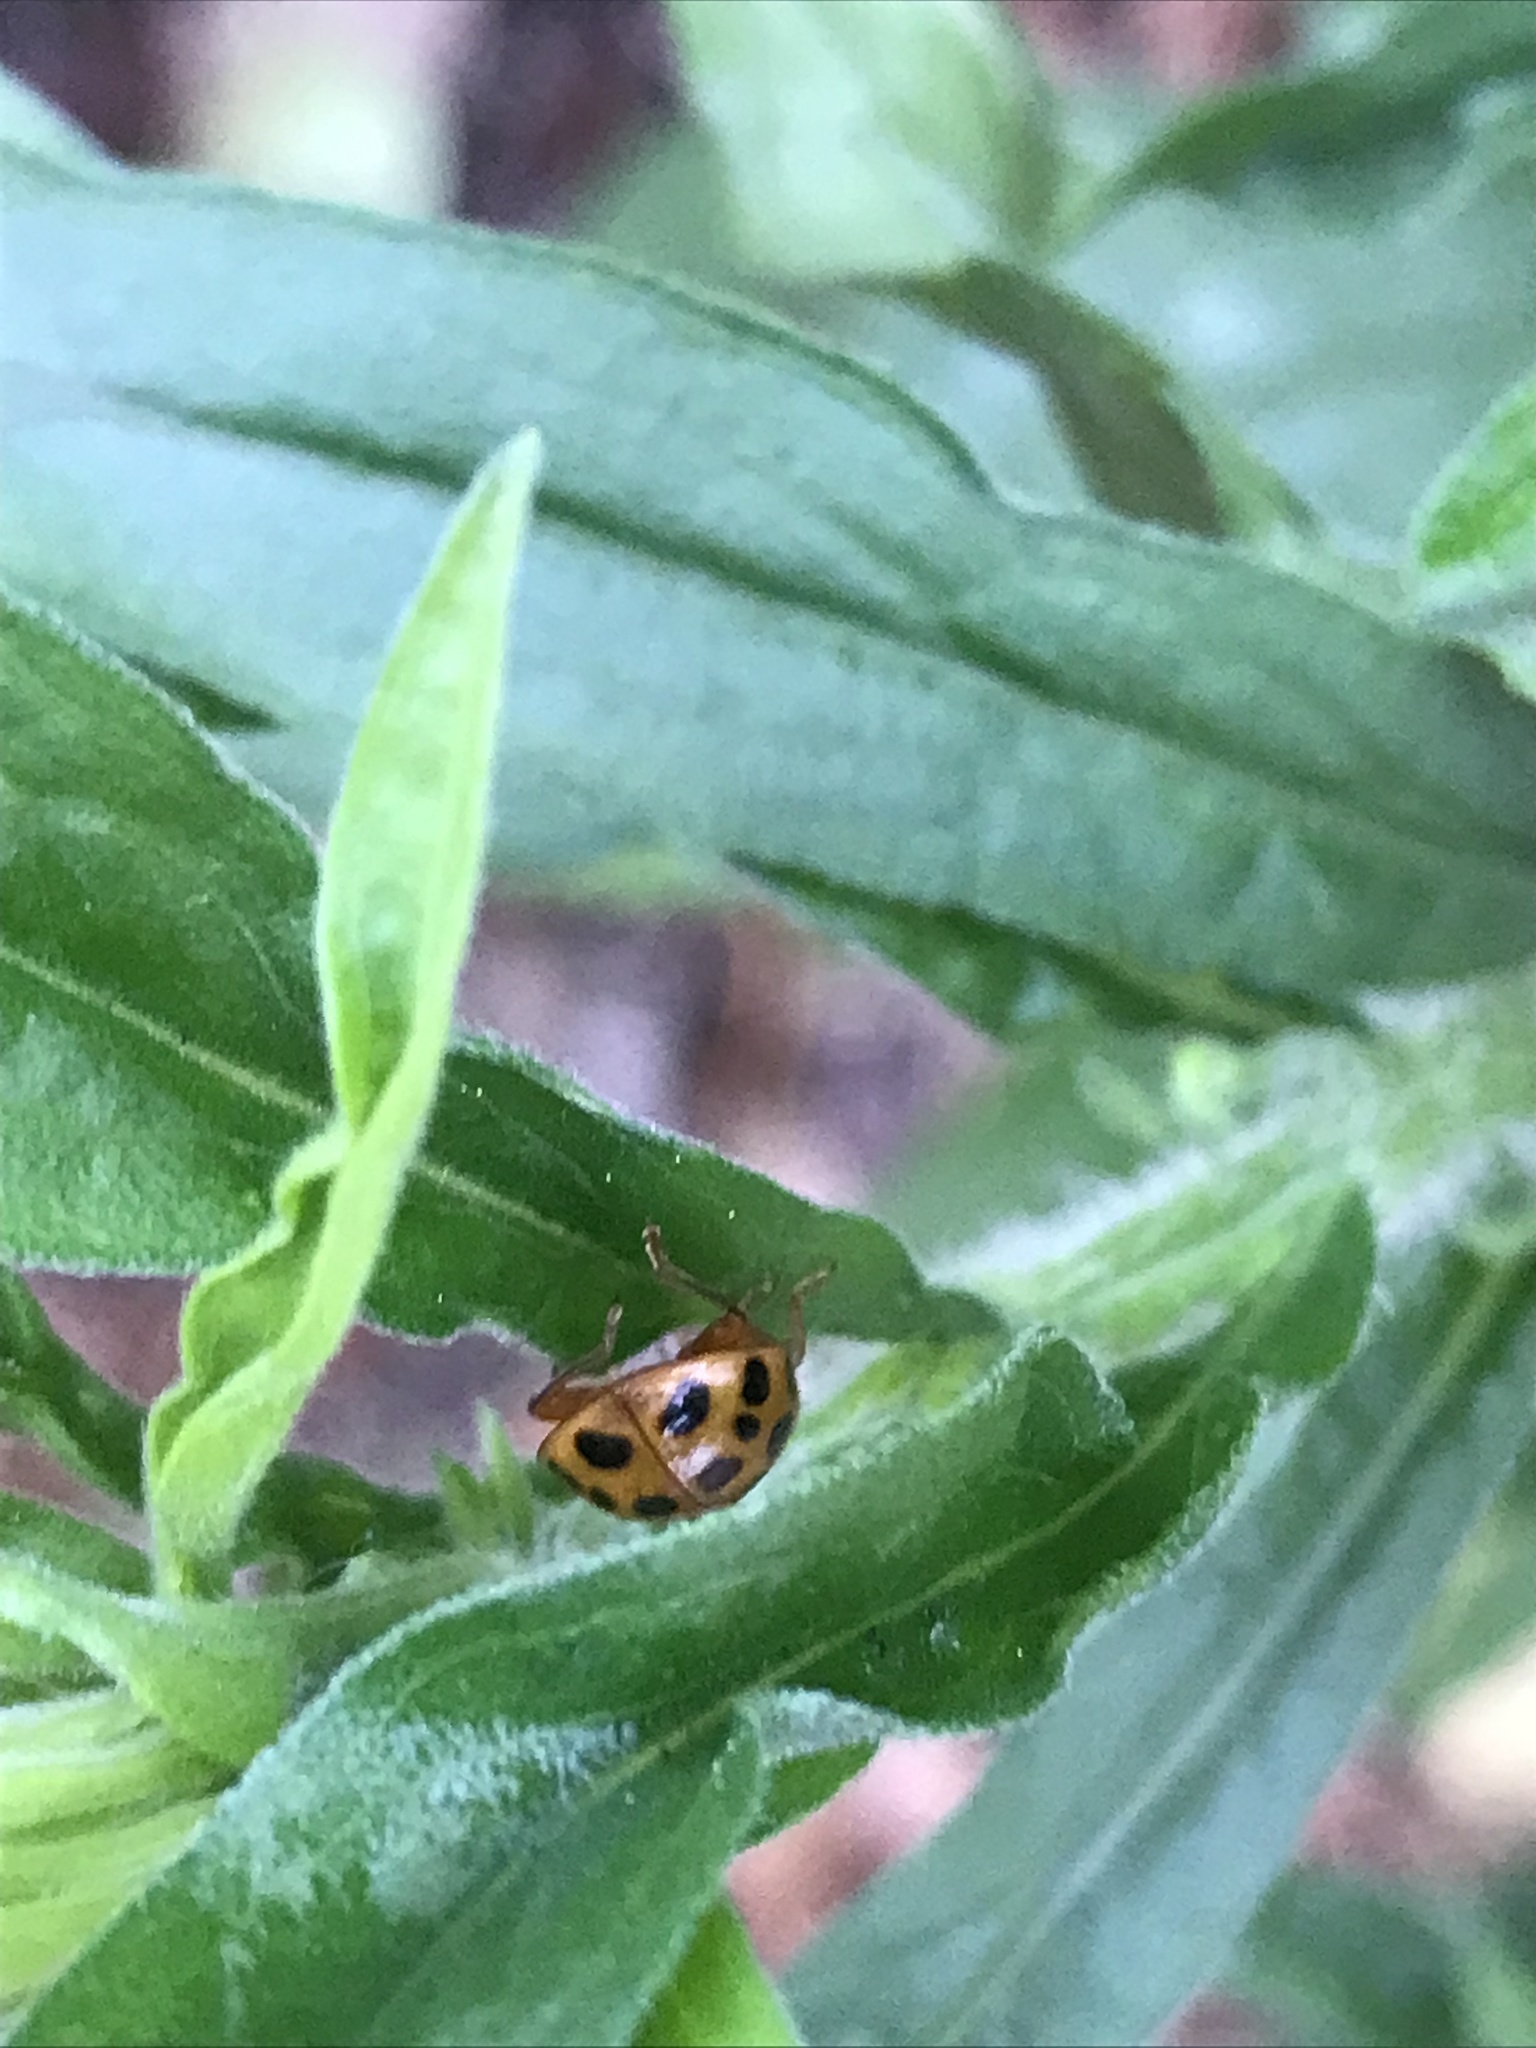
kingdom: Animalia
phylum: Arthropoda
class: Insecta
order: Coleoptera
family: Coccinellidae
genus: Harmonia
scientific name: Harmonia axyridis
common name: Harlequin ladybird
